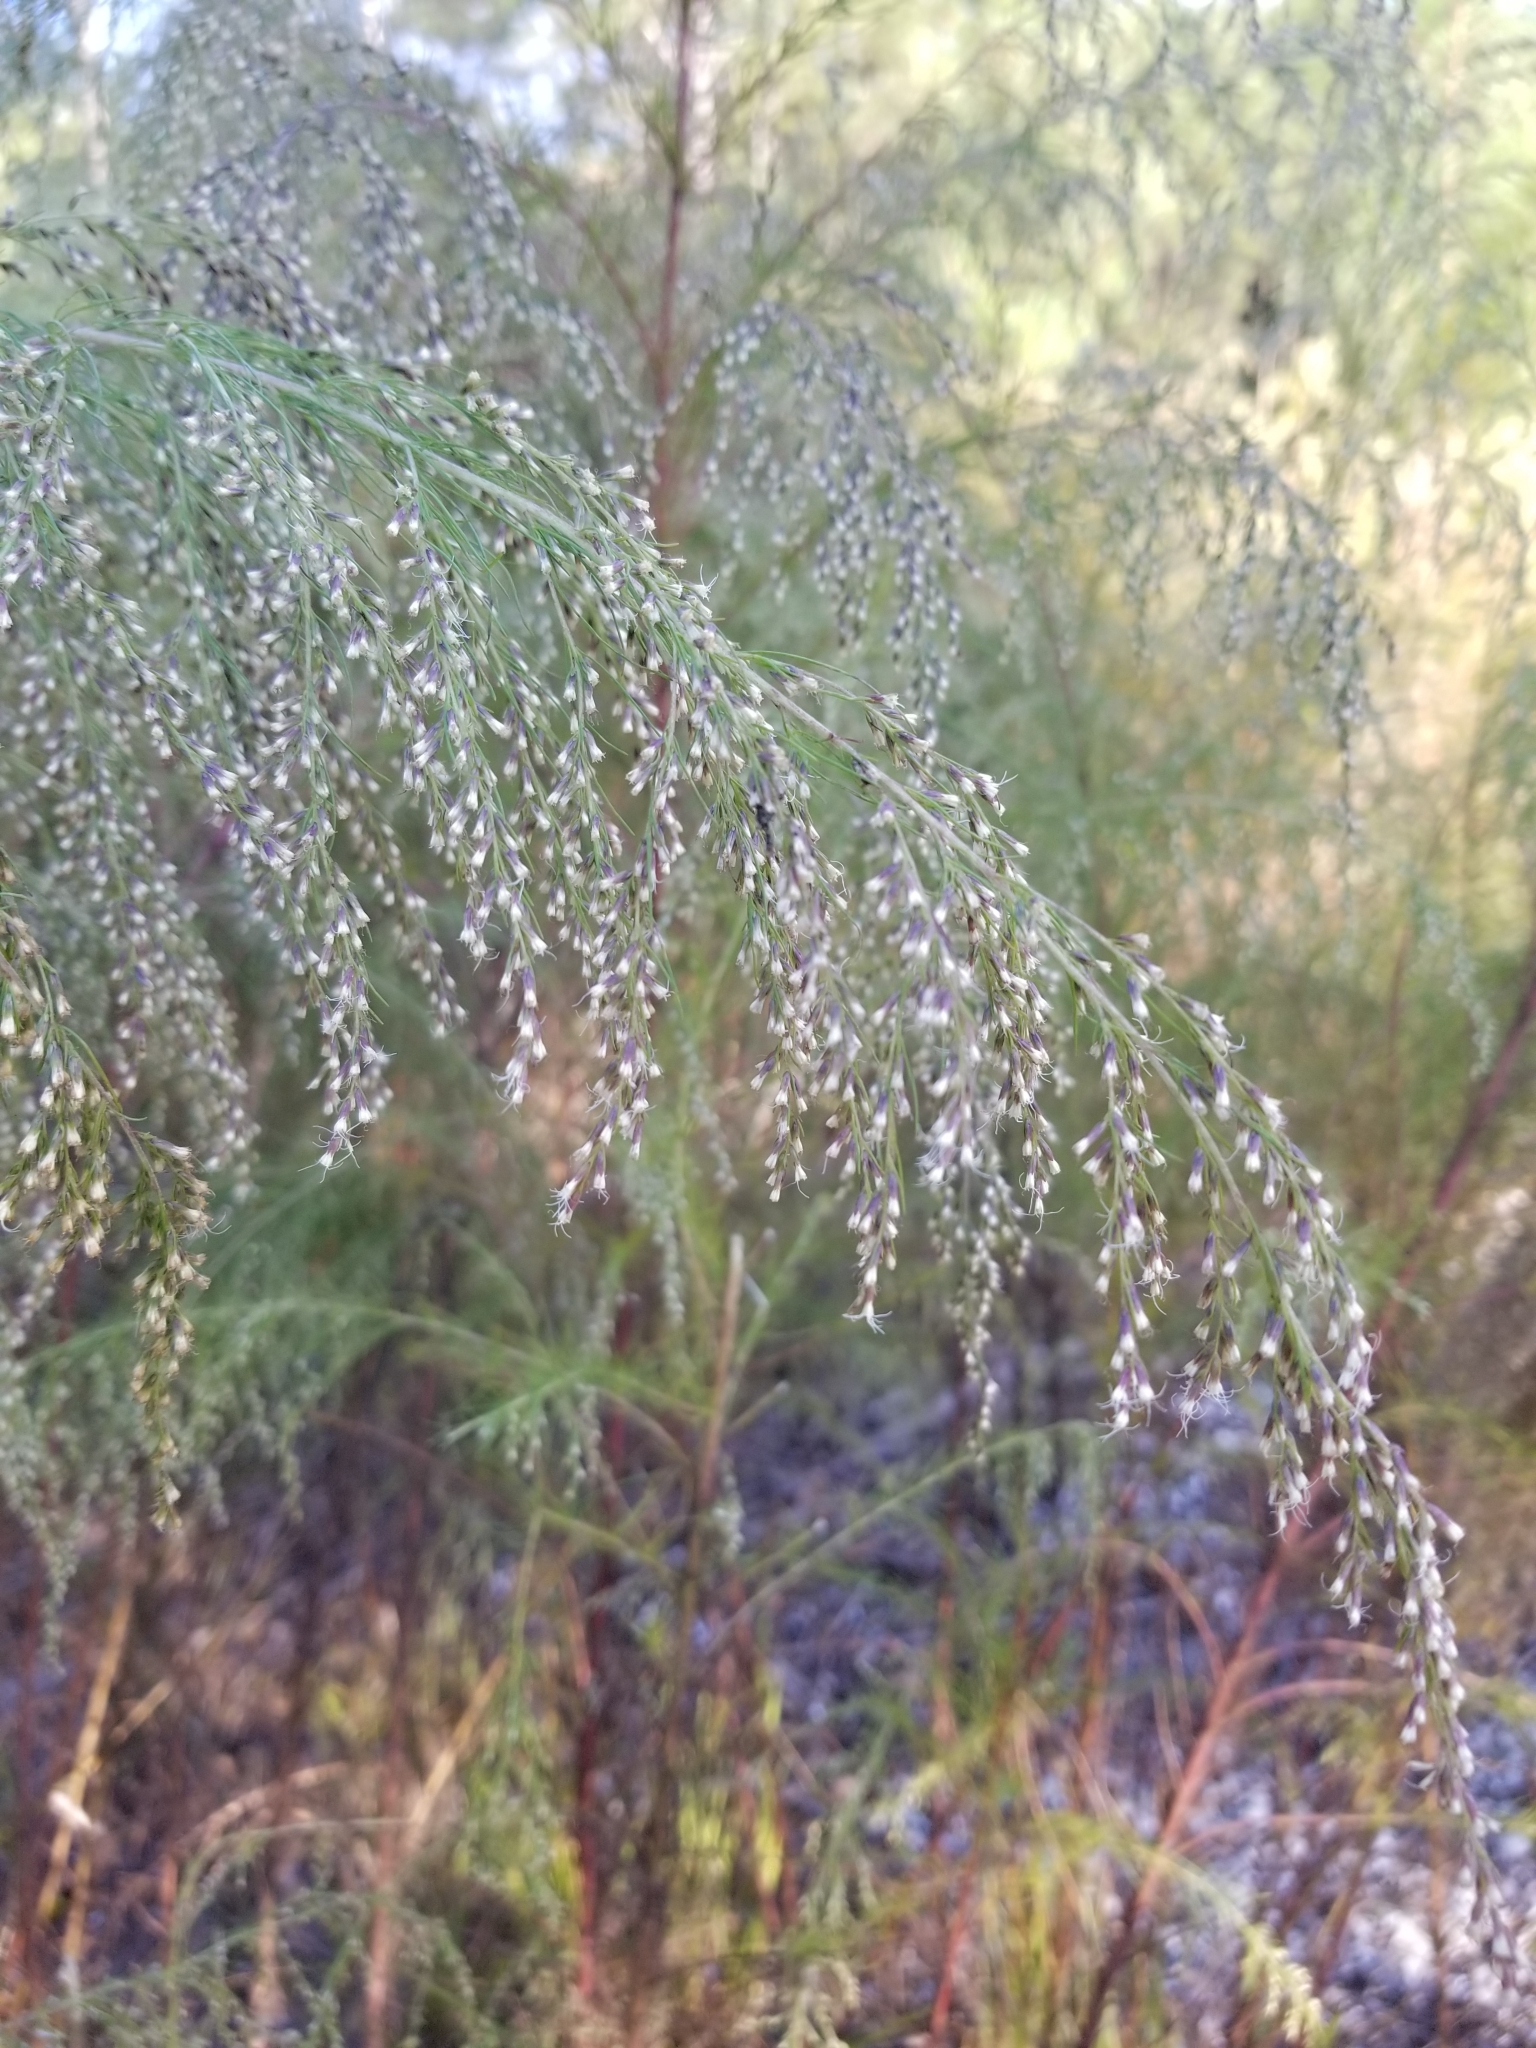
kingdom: Plantae
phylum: Tracheophyta
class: Magnoliopsida
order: Asterales
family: Asteraceae
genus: Eupatorium
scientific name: Eupatorium capillifolium
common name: Dog-fennel
